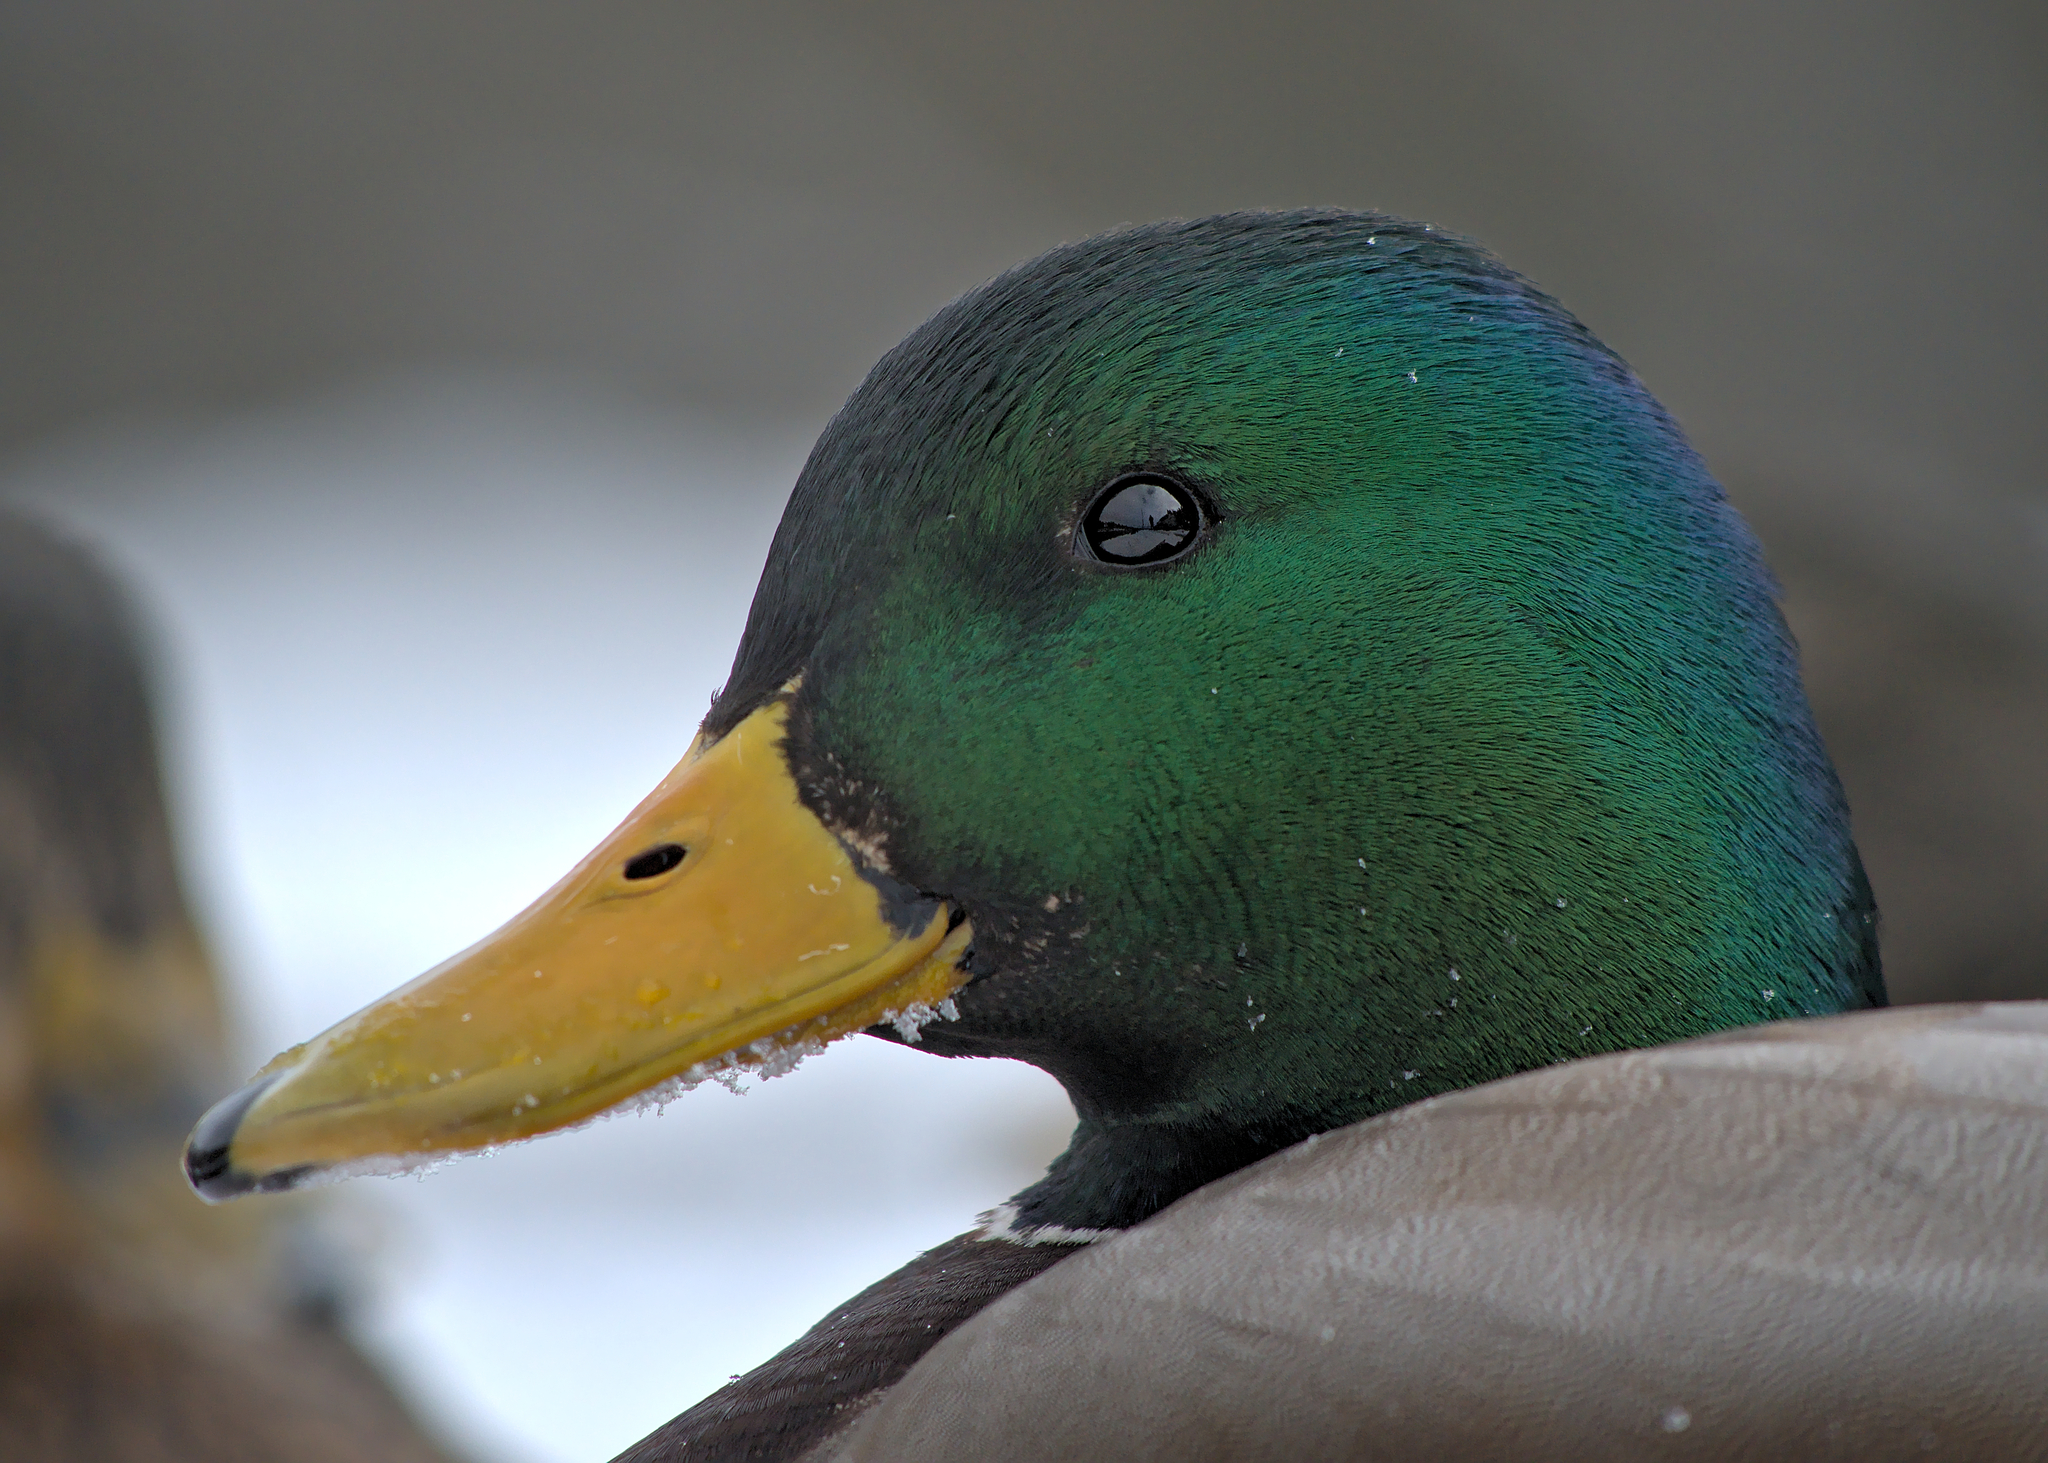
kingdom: Animalia
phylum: Chordata
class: Aves
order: Anseriformes
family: Anatidae
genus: Anas
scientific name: Anas platyrhynchos
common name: Mallard
